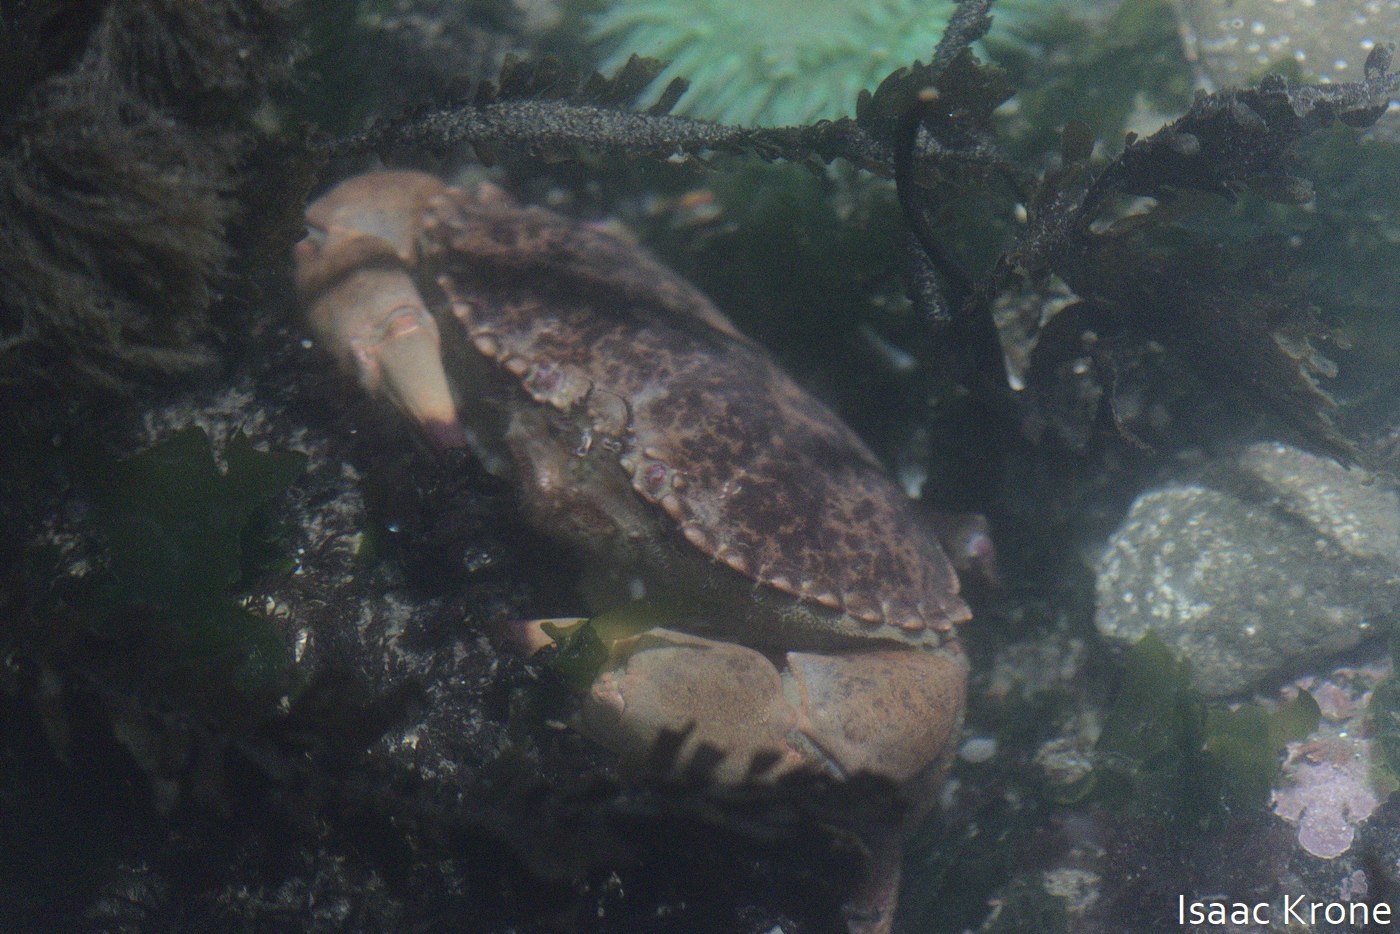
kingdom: Animalia
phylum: Arthropoda
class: Malacostraca
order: Decapoda
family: Cancridae
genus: Romaleon
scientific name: Romaleon antennarium
